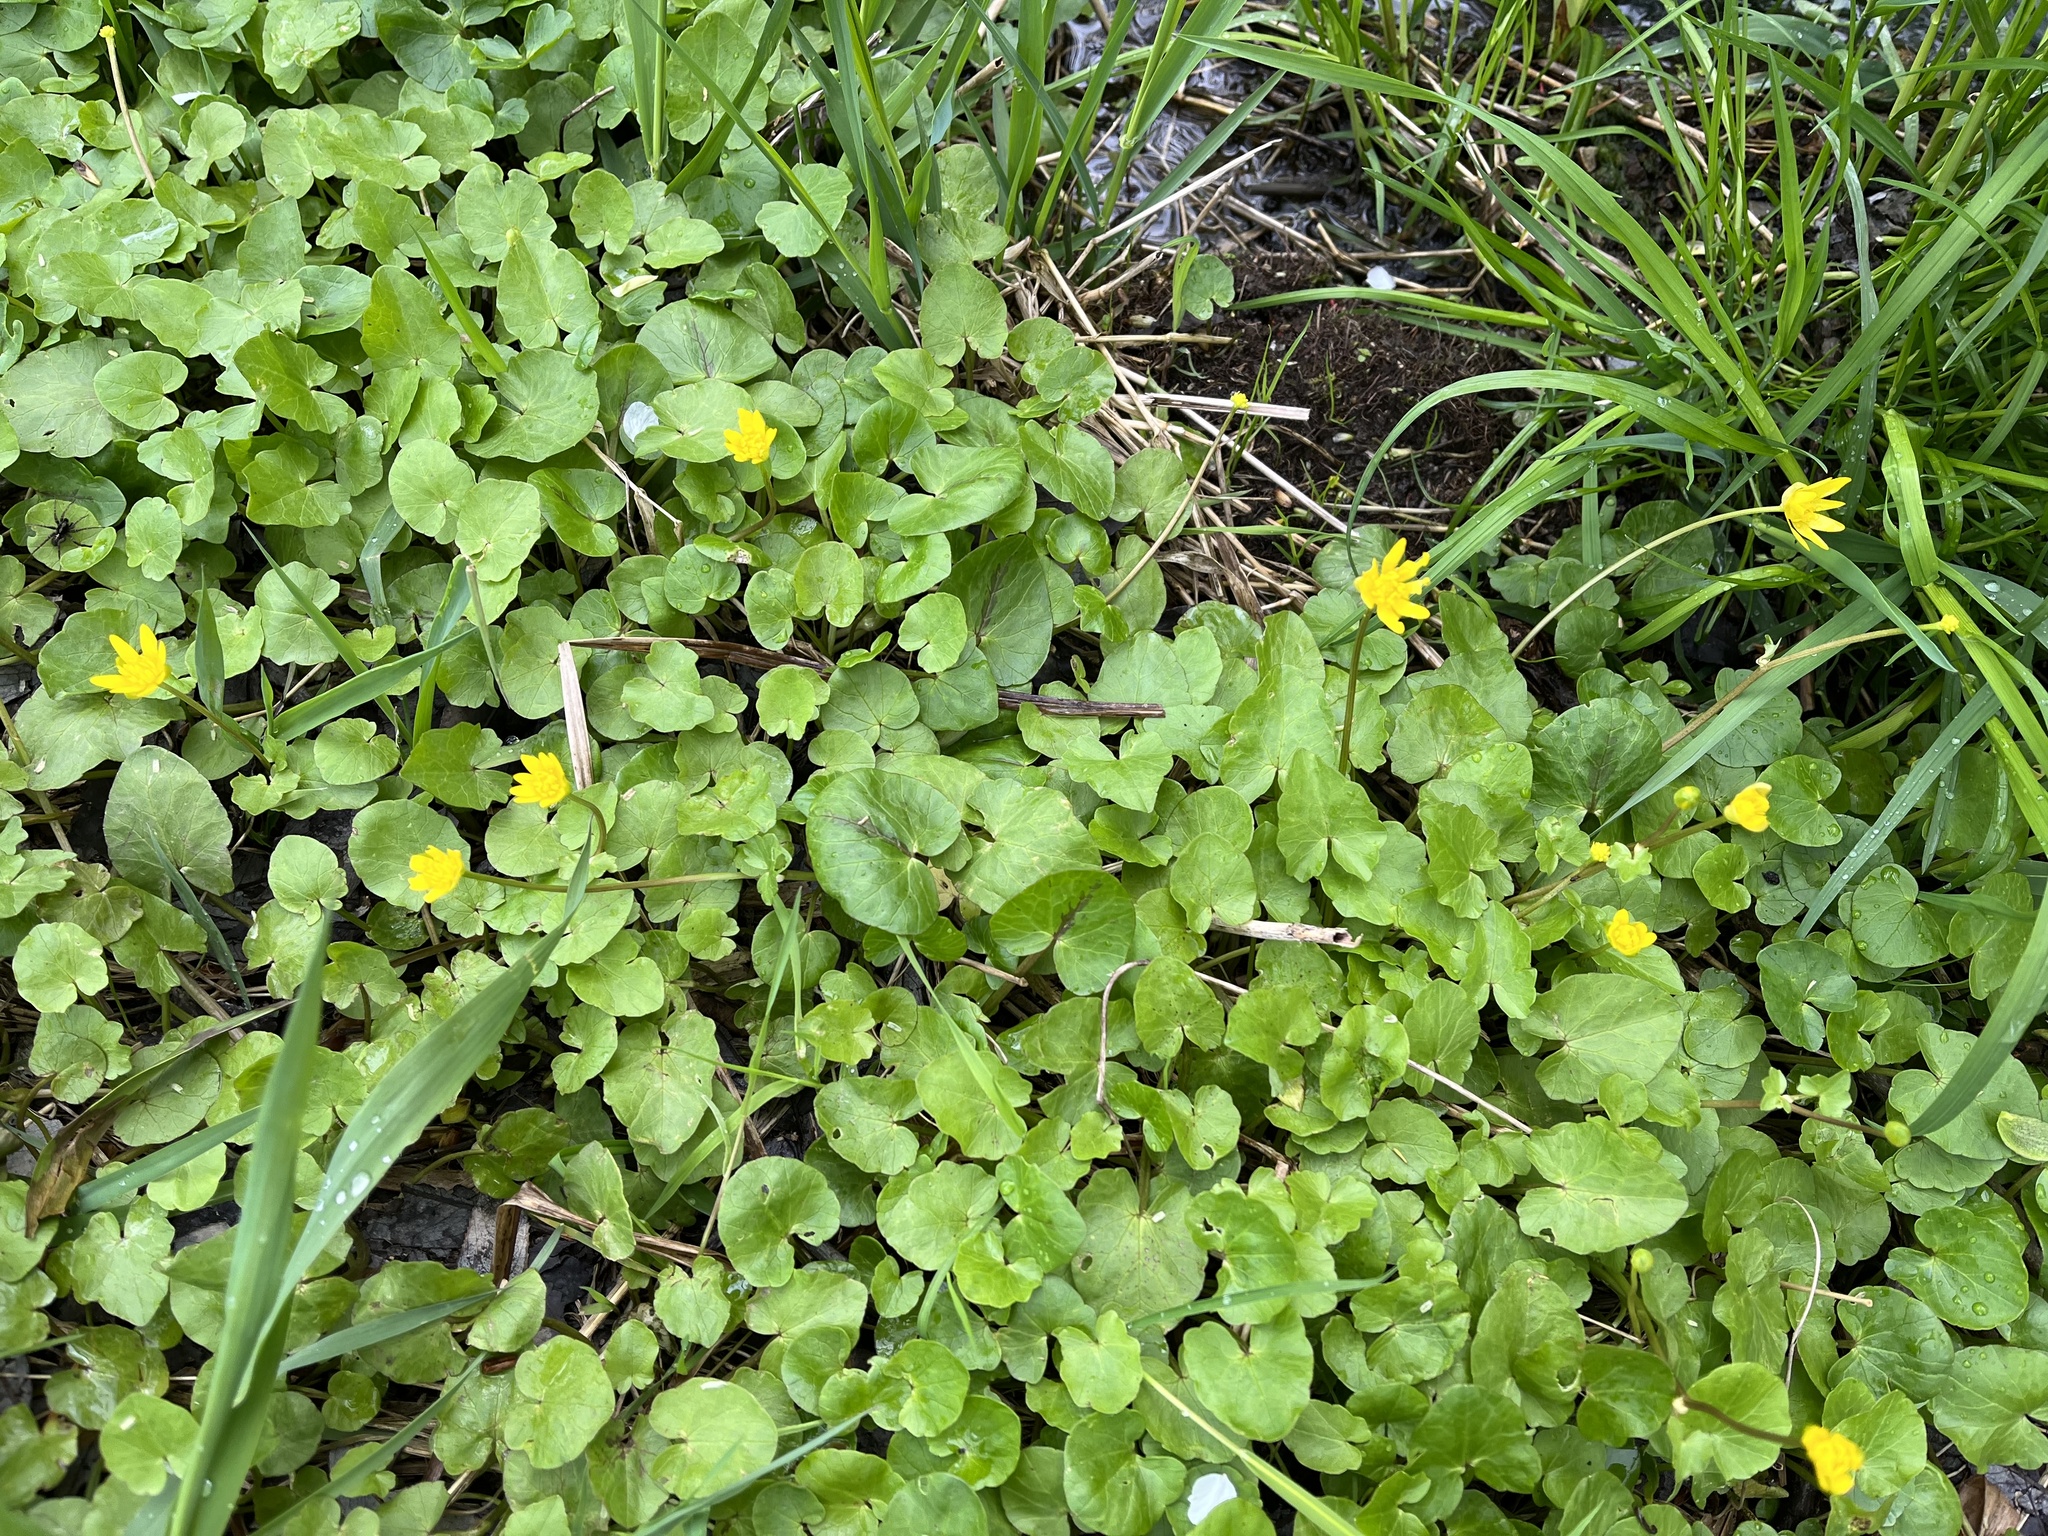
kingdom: Plantae
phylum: Tracheophyta
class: Magnoliopsida
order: Ranunculales
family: Ranunculaceae
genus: Ficaria
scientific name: Ficaria verna
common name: Lesser celandine
